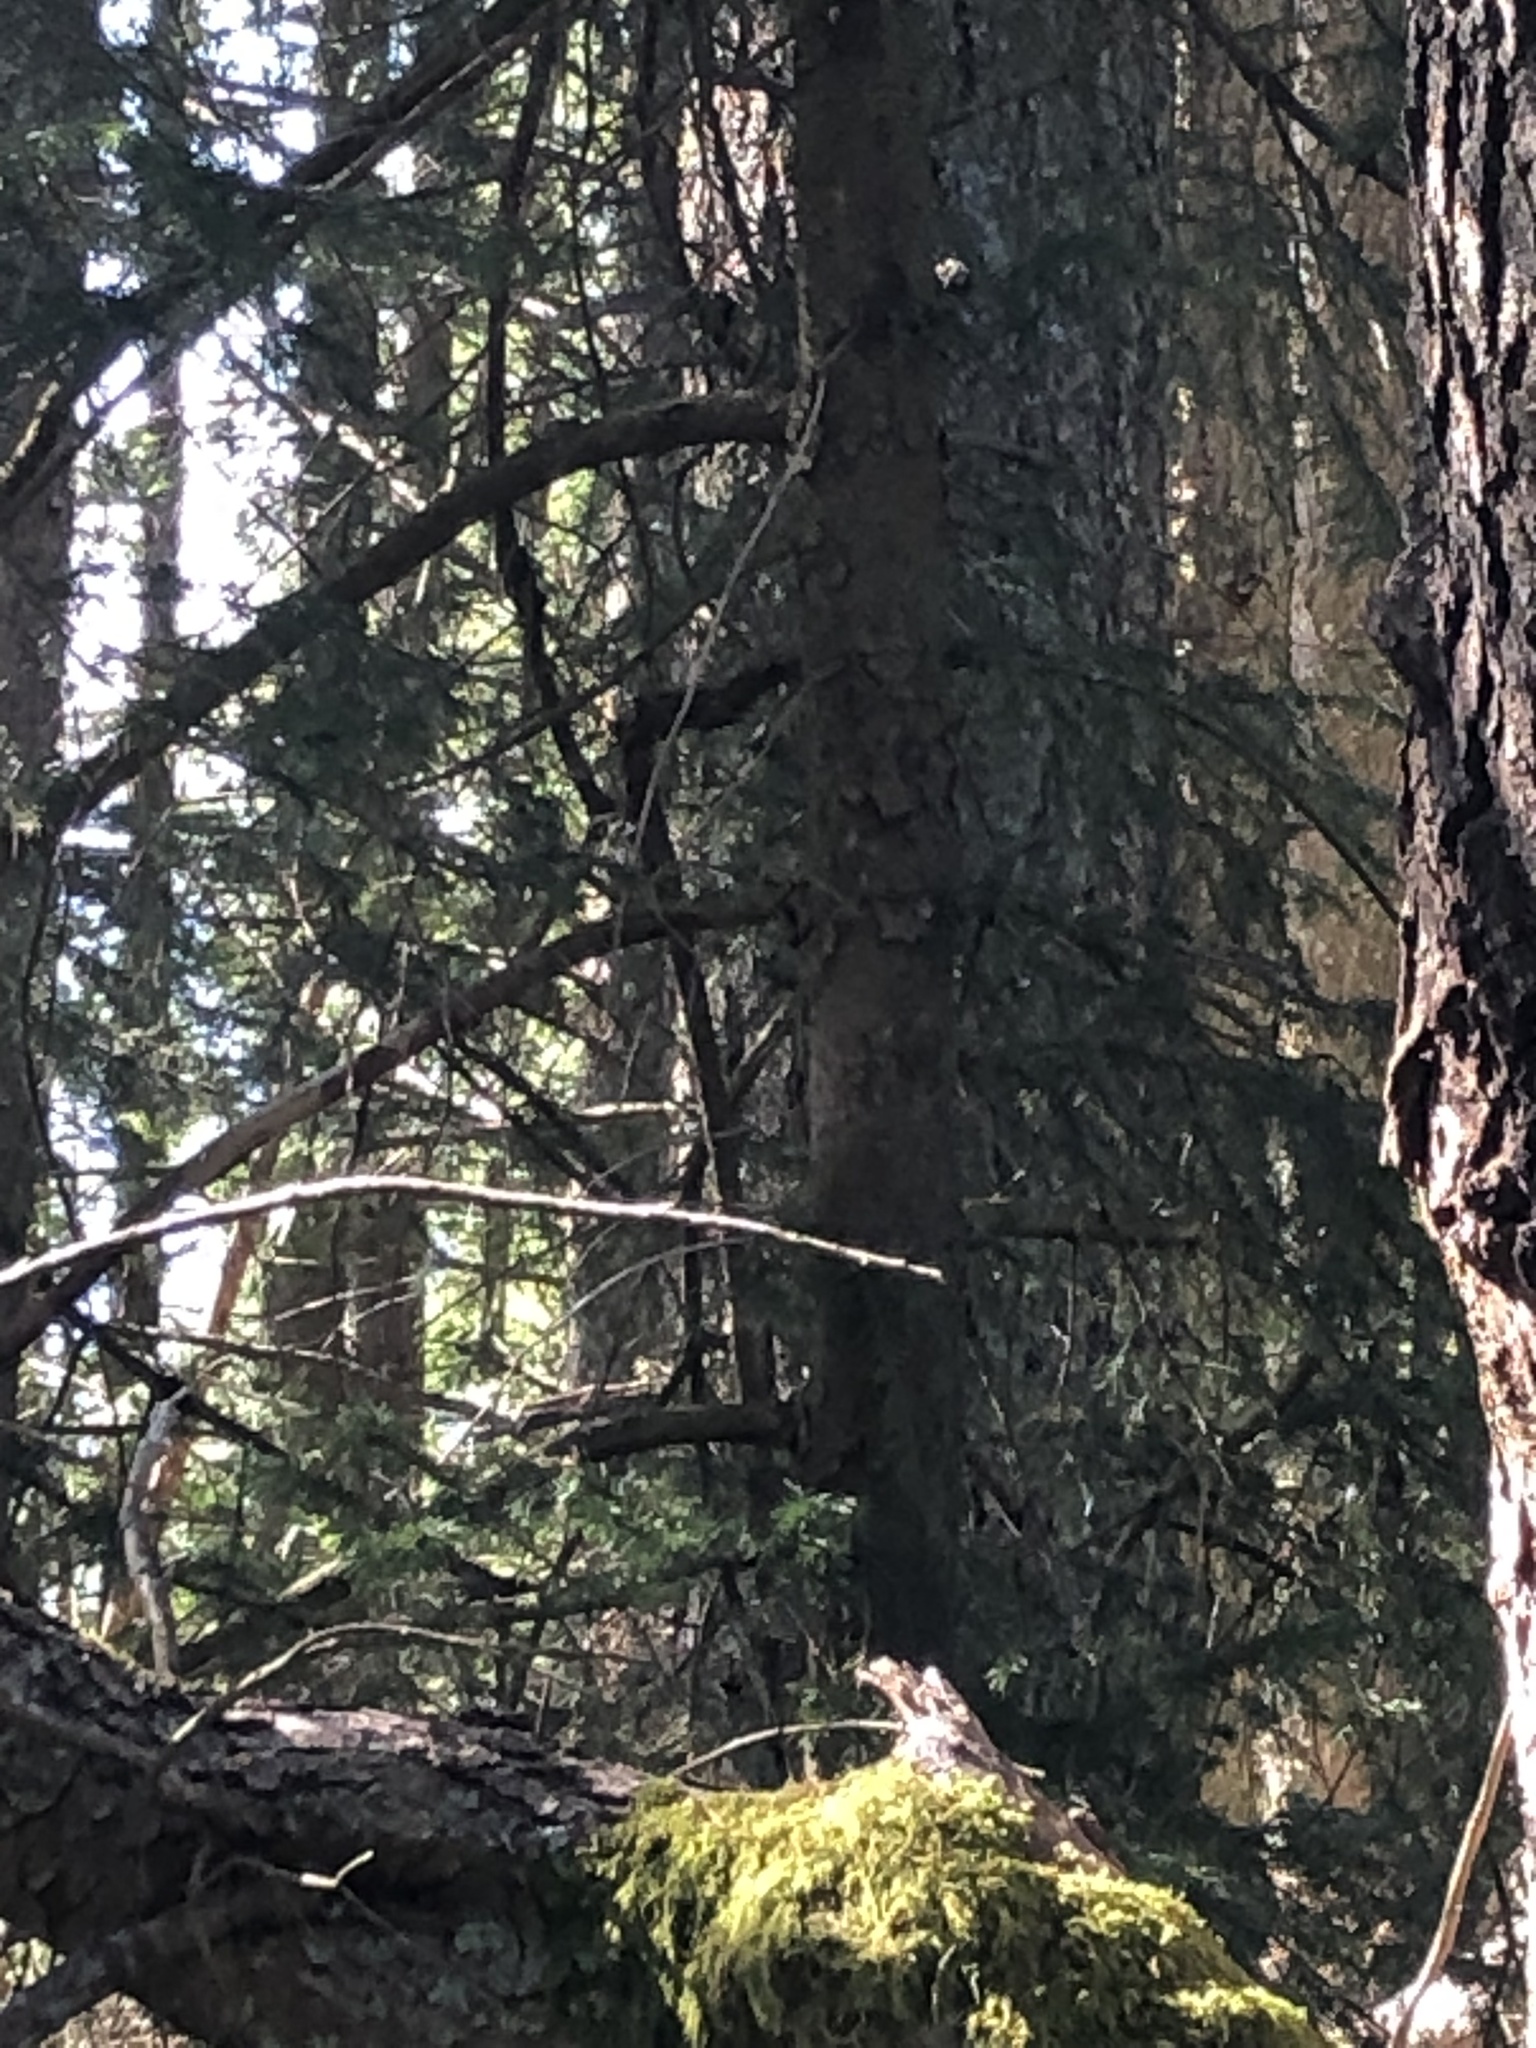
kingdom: Plantae
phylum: Tracheophyta
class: Pinopsida
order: Pinales
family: Pinaceae
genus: Picea
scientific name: Picea sitchensis
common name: Sitka spruce
